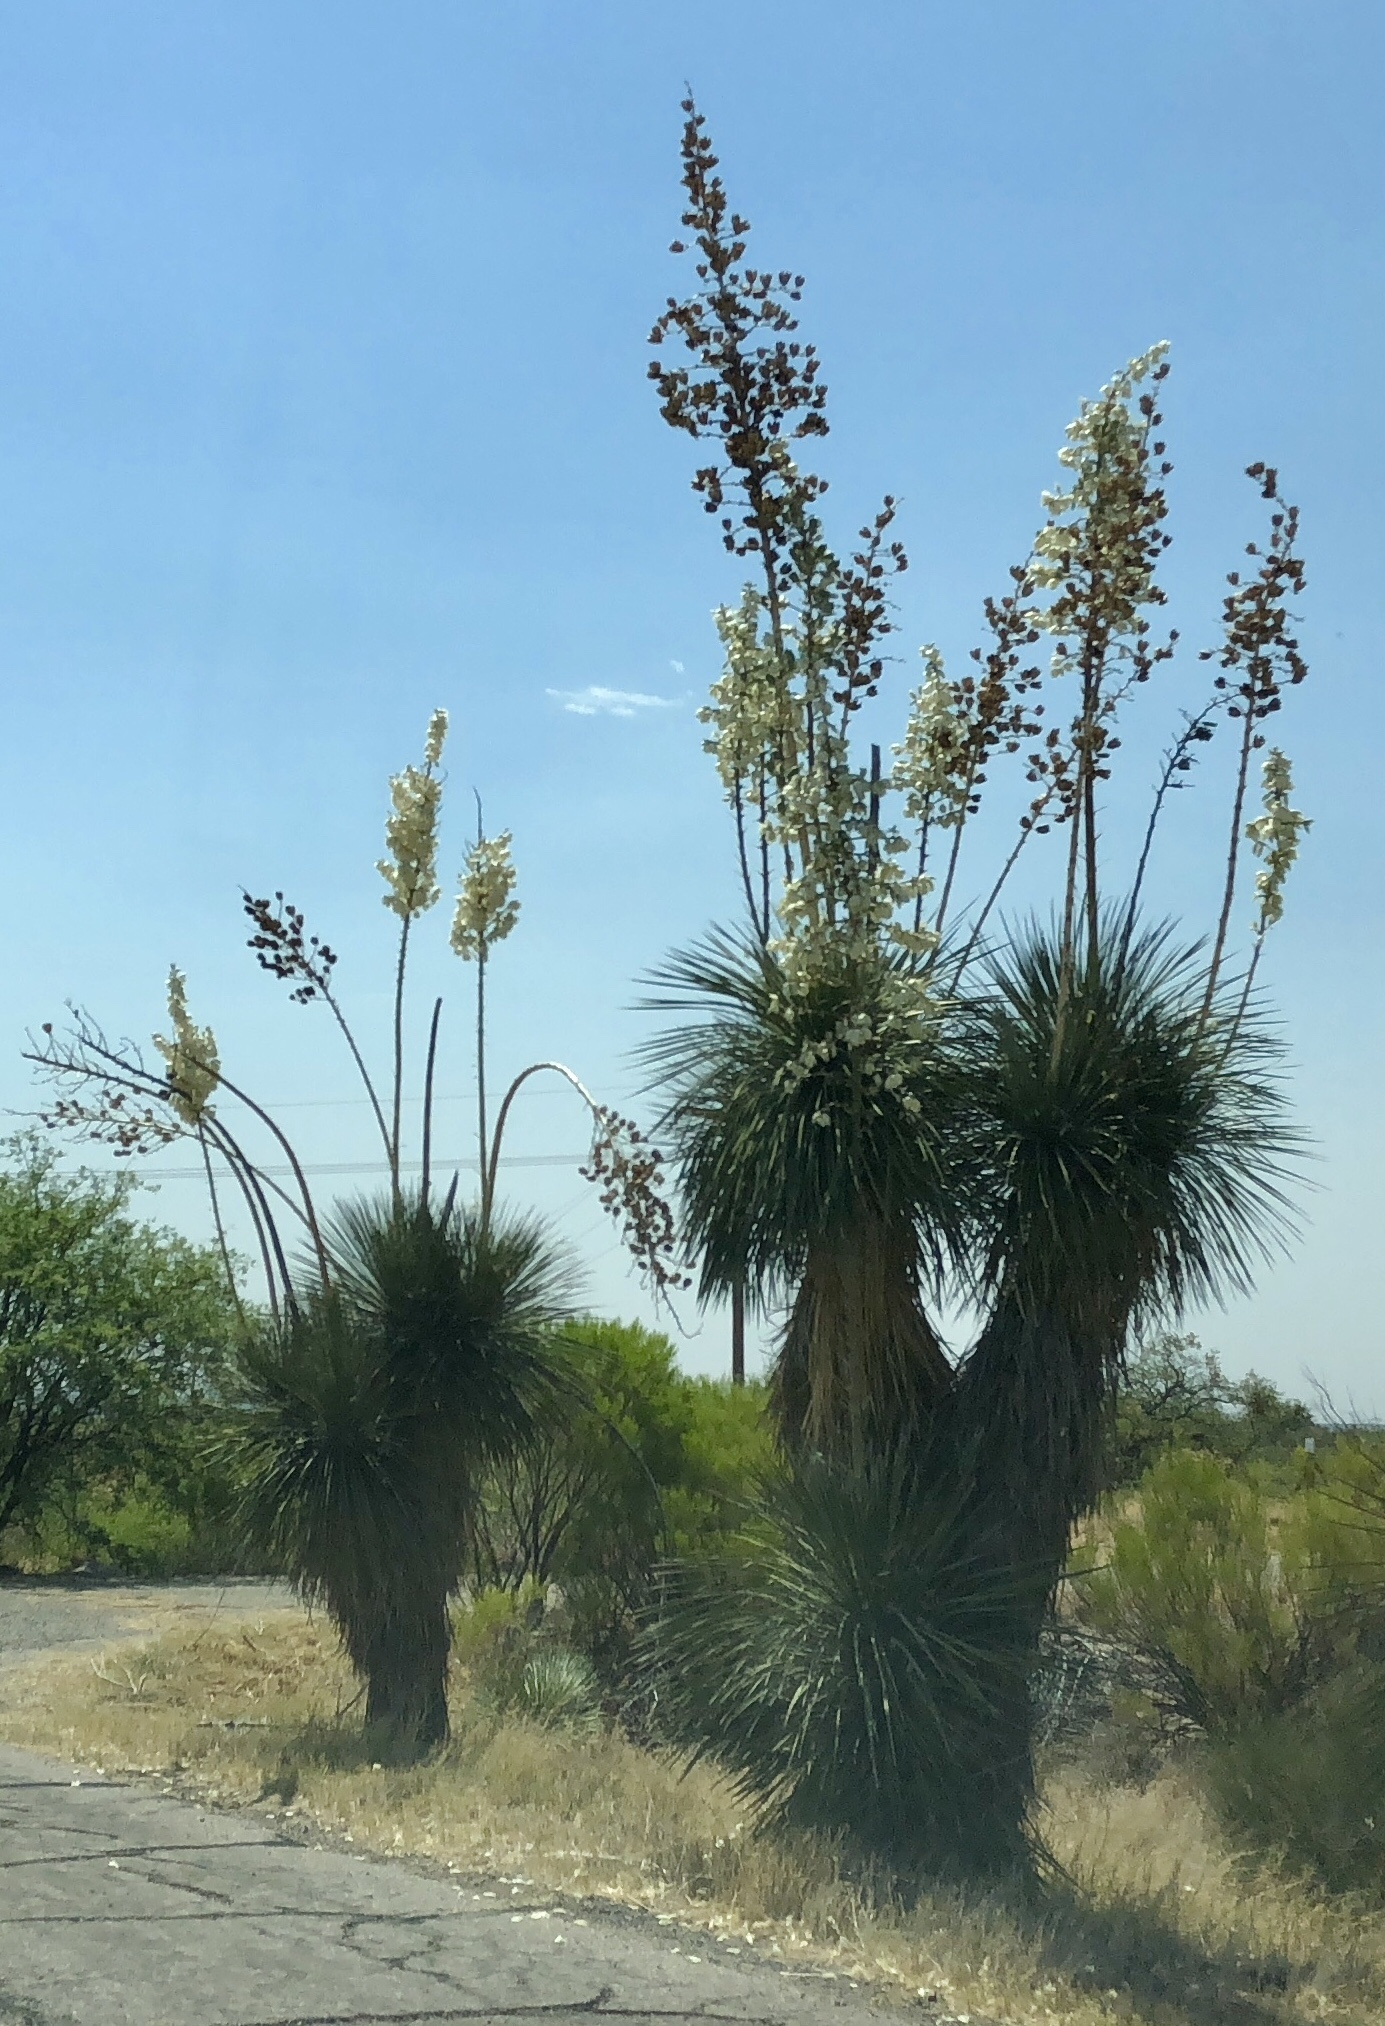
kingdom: Plantae
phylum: Tracheophyta
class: Liliopsida
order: Asparagales
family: Asparagaceae
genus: Yucca
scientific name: Yucca elata
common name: Palmella
